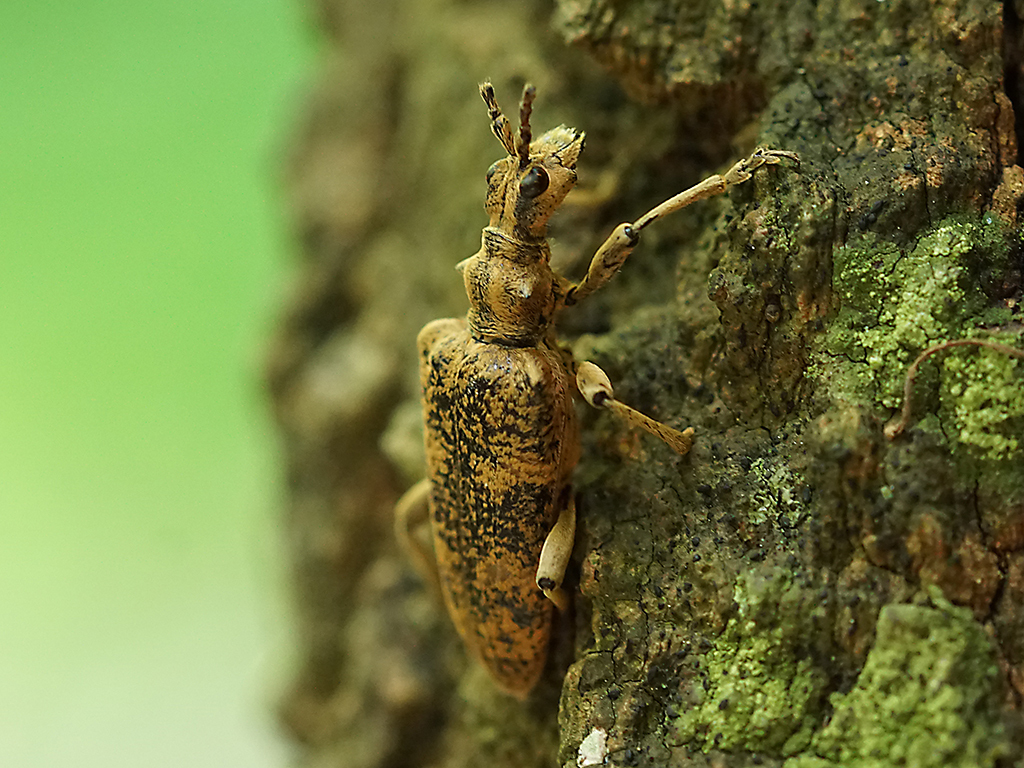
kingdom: Animalia
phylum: Arthropoda
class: Insecta
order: Coleoptera
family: Cerambycidae
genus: Rhagium
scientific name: Rhagium sycophanta
